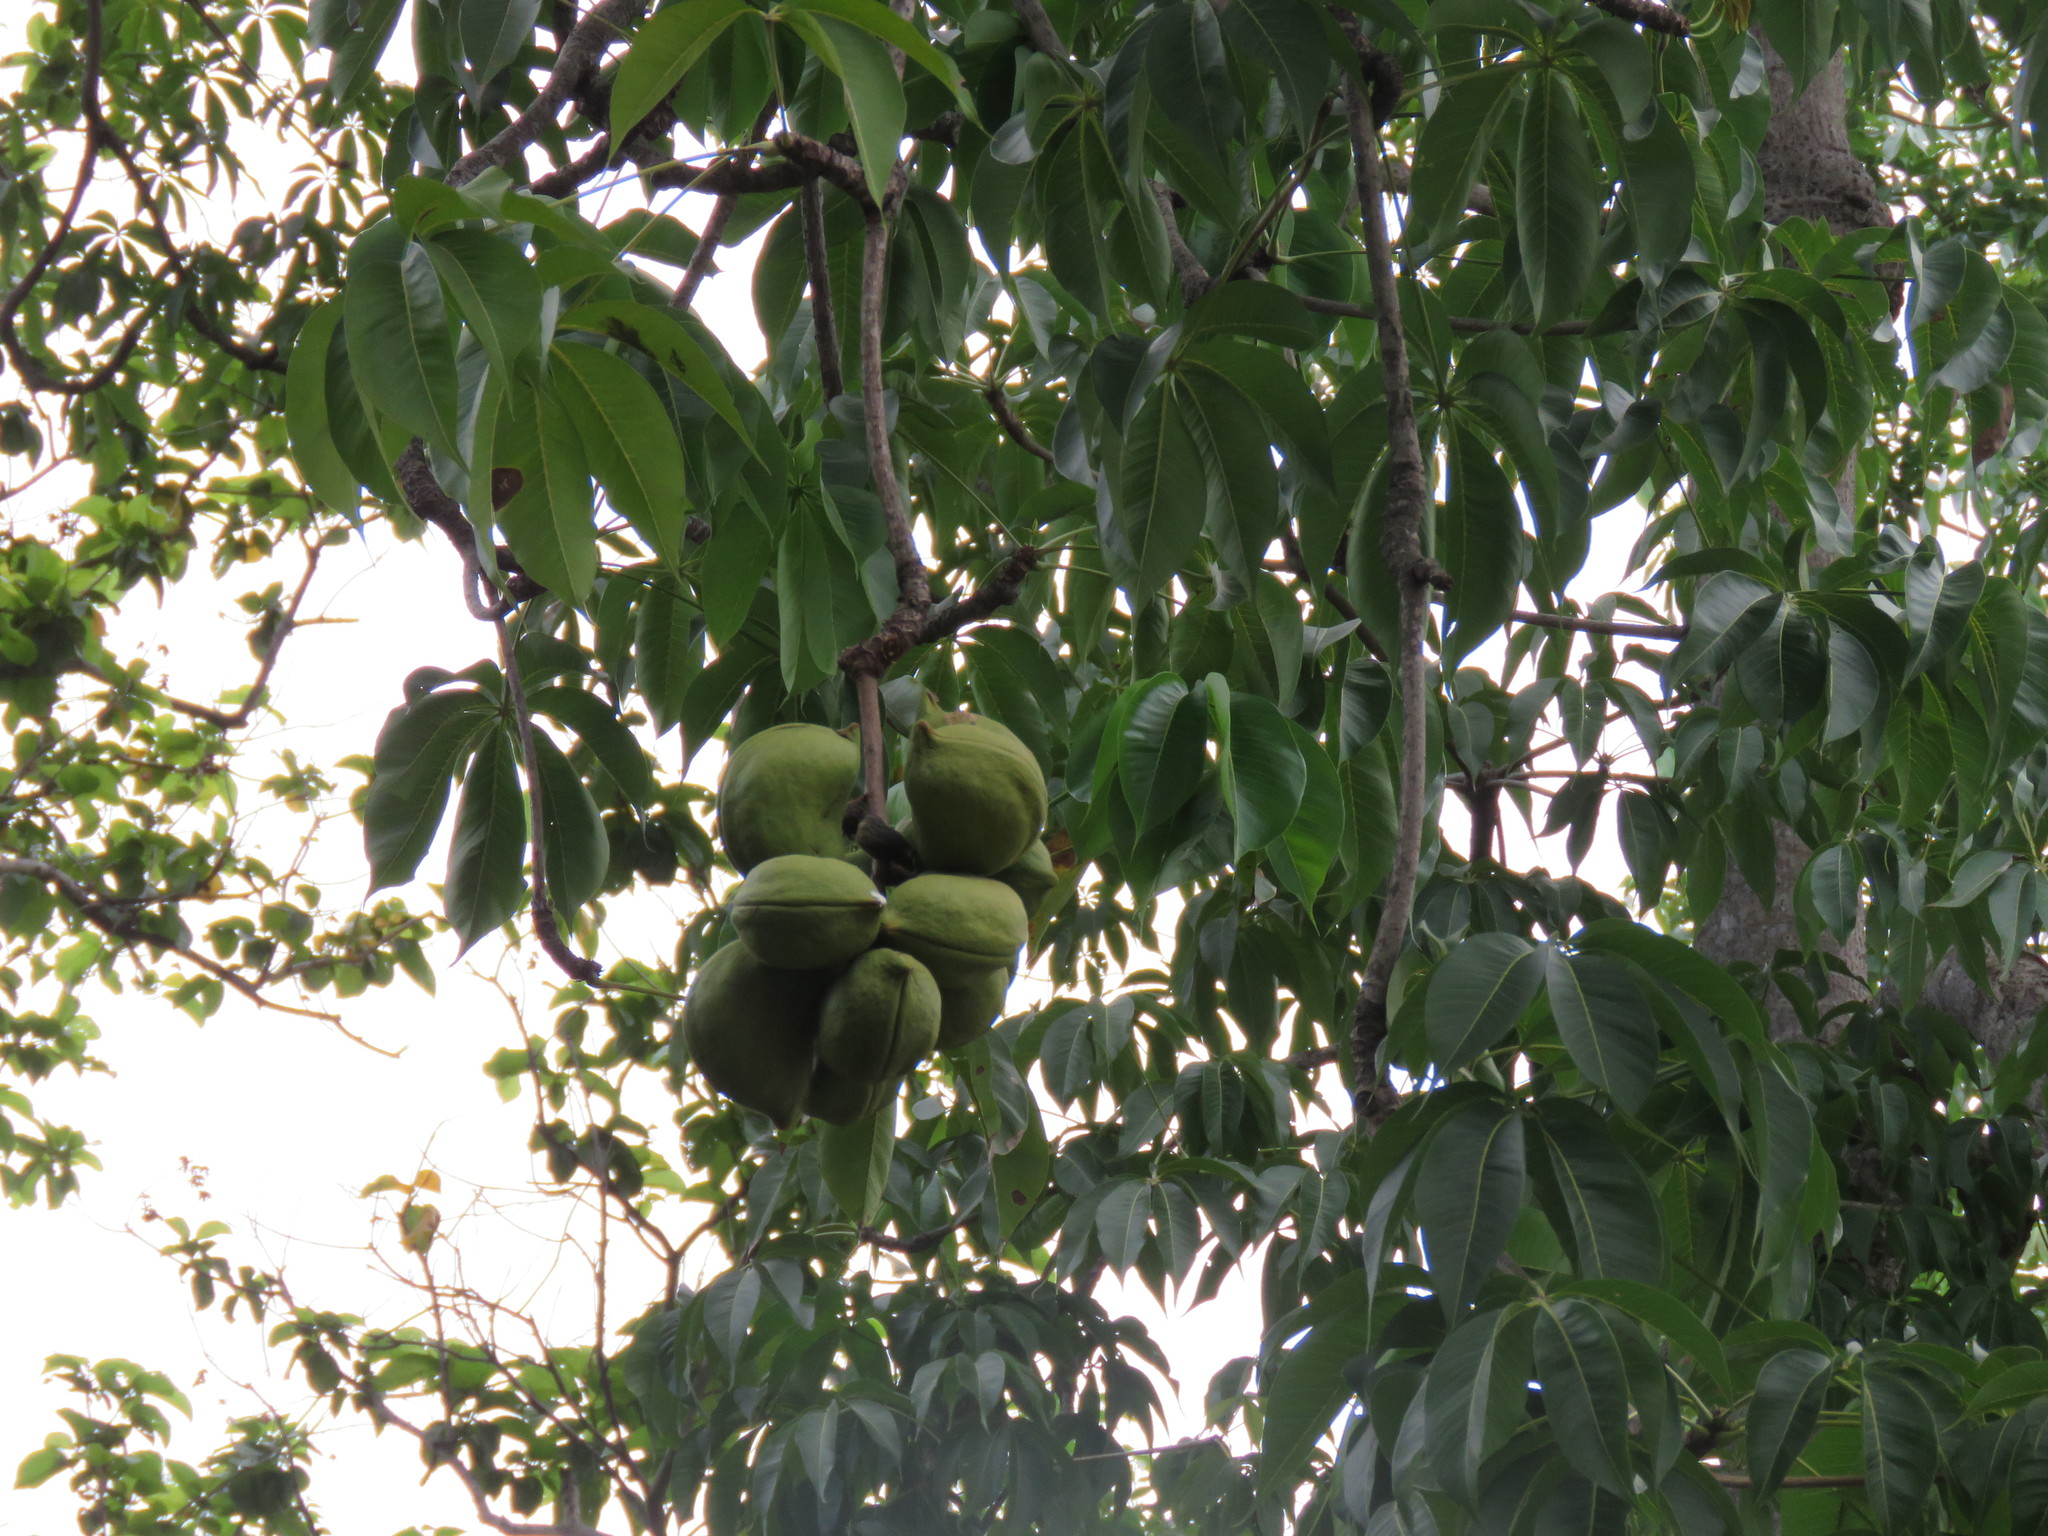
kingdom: Plantae
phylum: Tracheophyta
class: Magnoliopsida
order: Malvales
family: Malvaceae
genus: Sterculia
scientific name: Sterculia foetida
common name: Hazel sterculia
